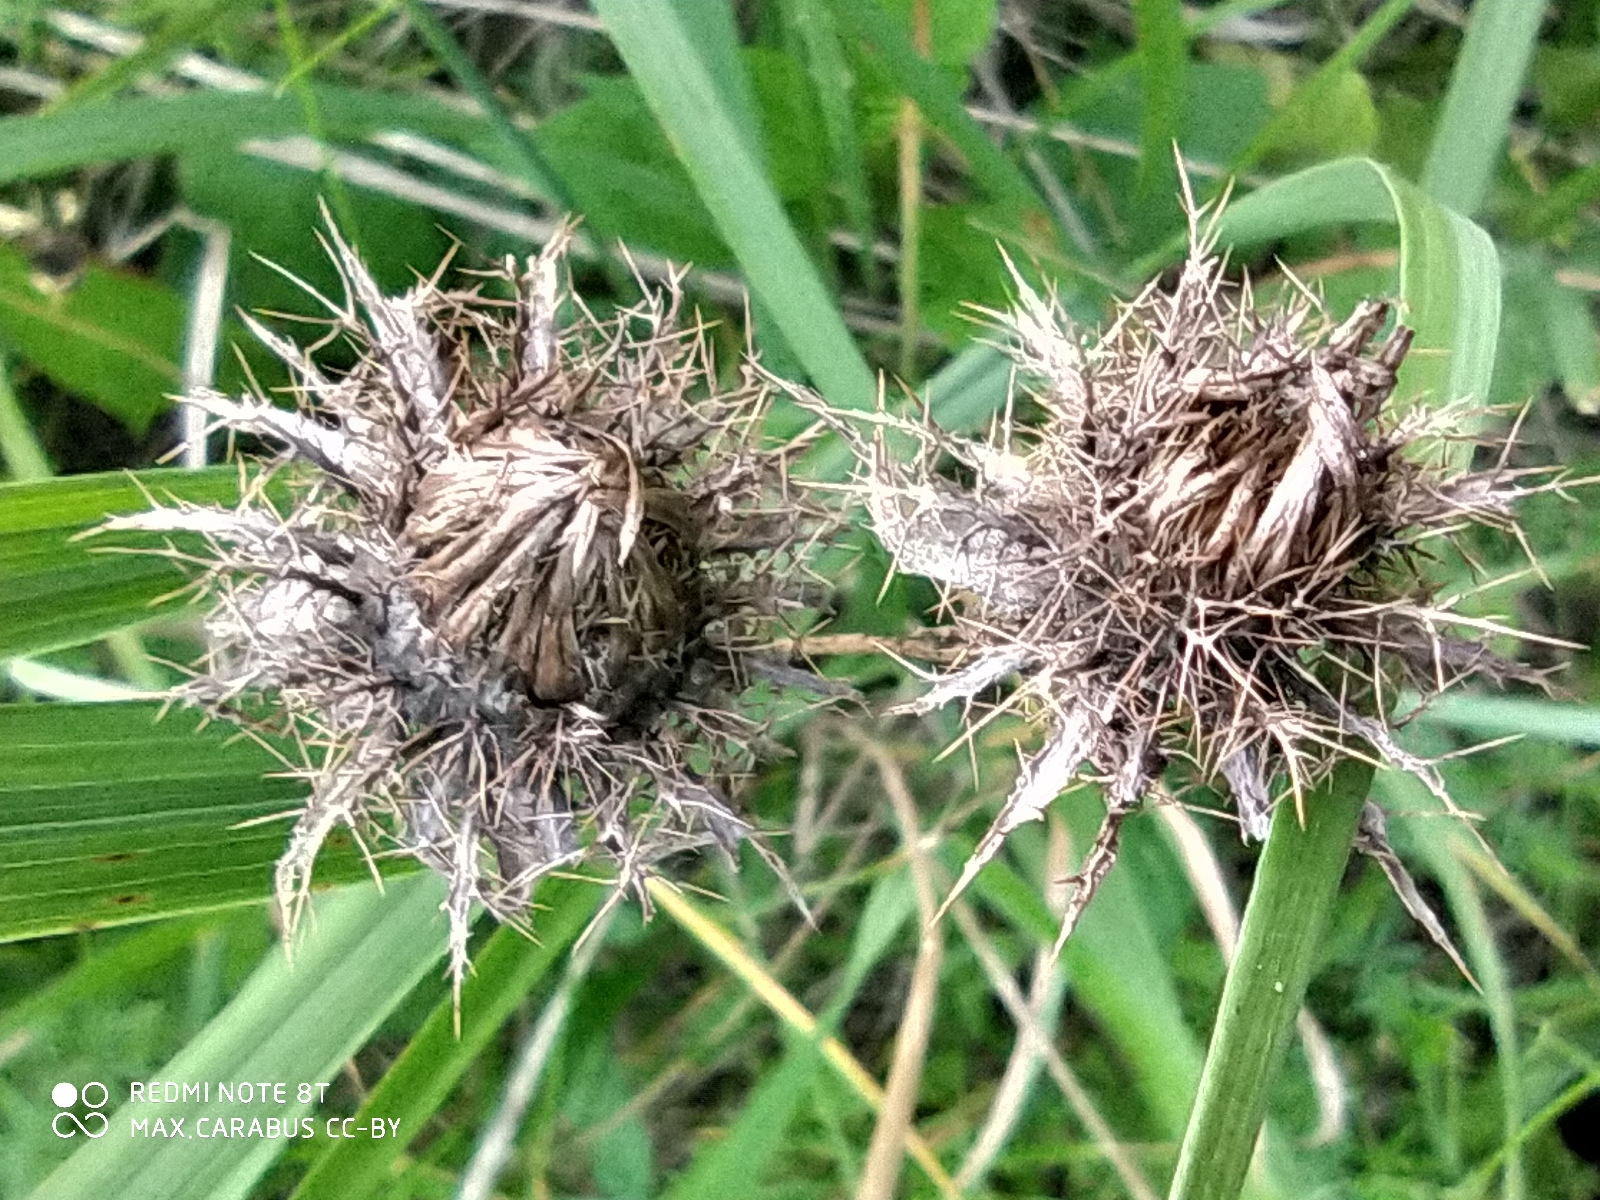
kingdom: Plantae
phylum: Tracheophyta
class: Magnoliopsida
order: Asterales
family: Asteraceae
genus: Carlina
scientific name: Carlina biebersteinii
